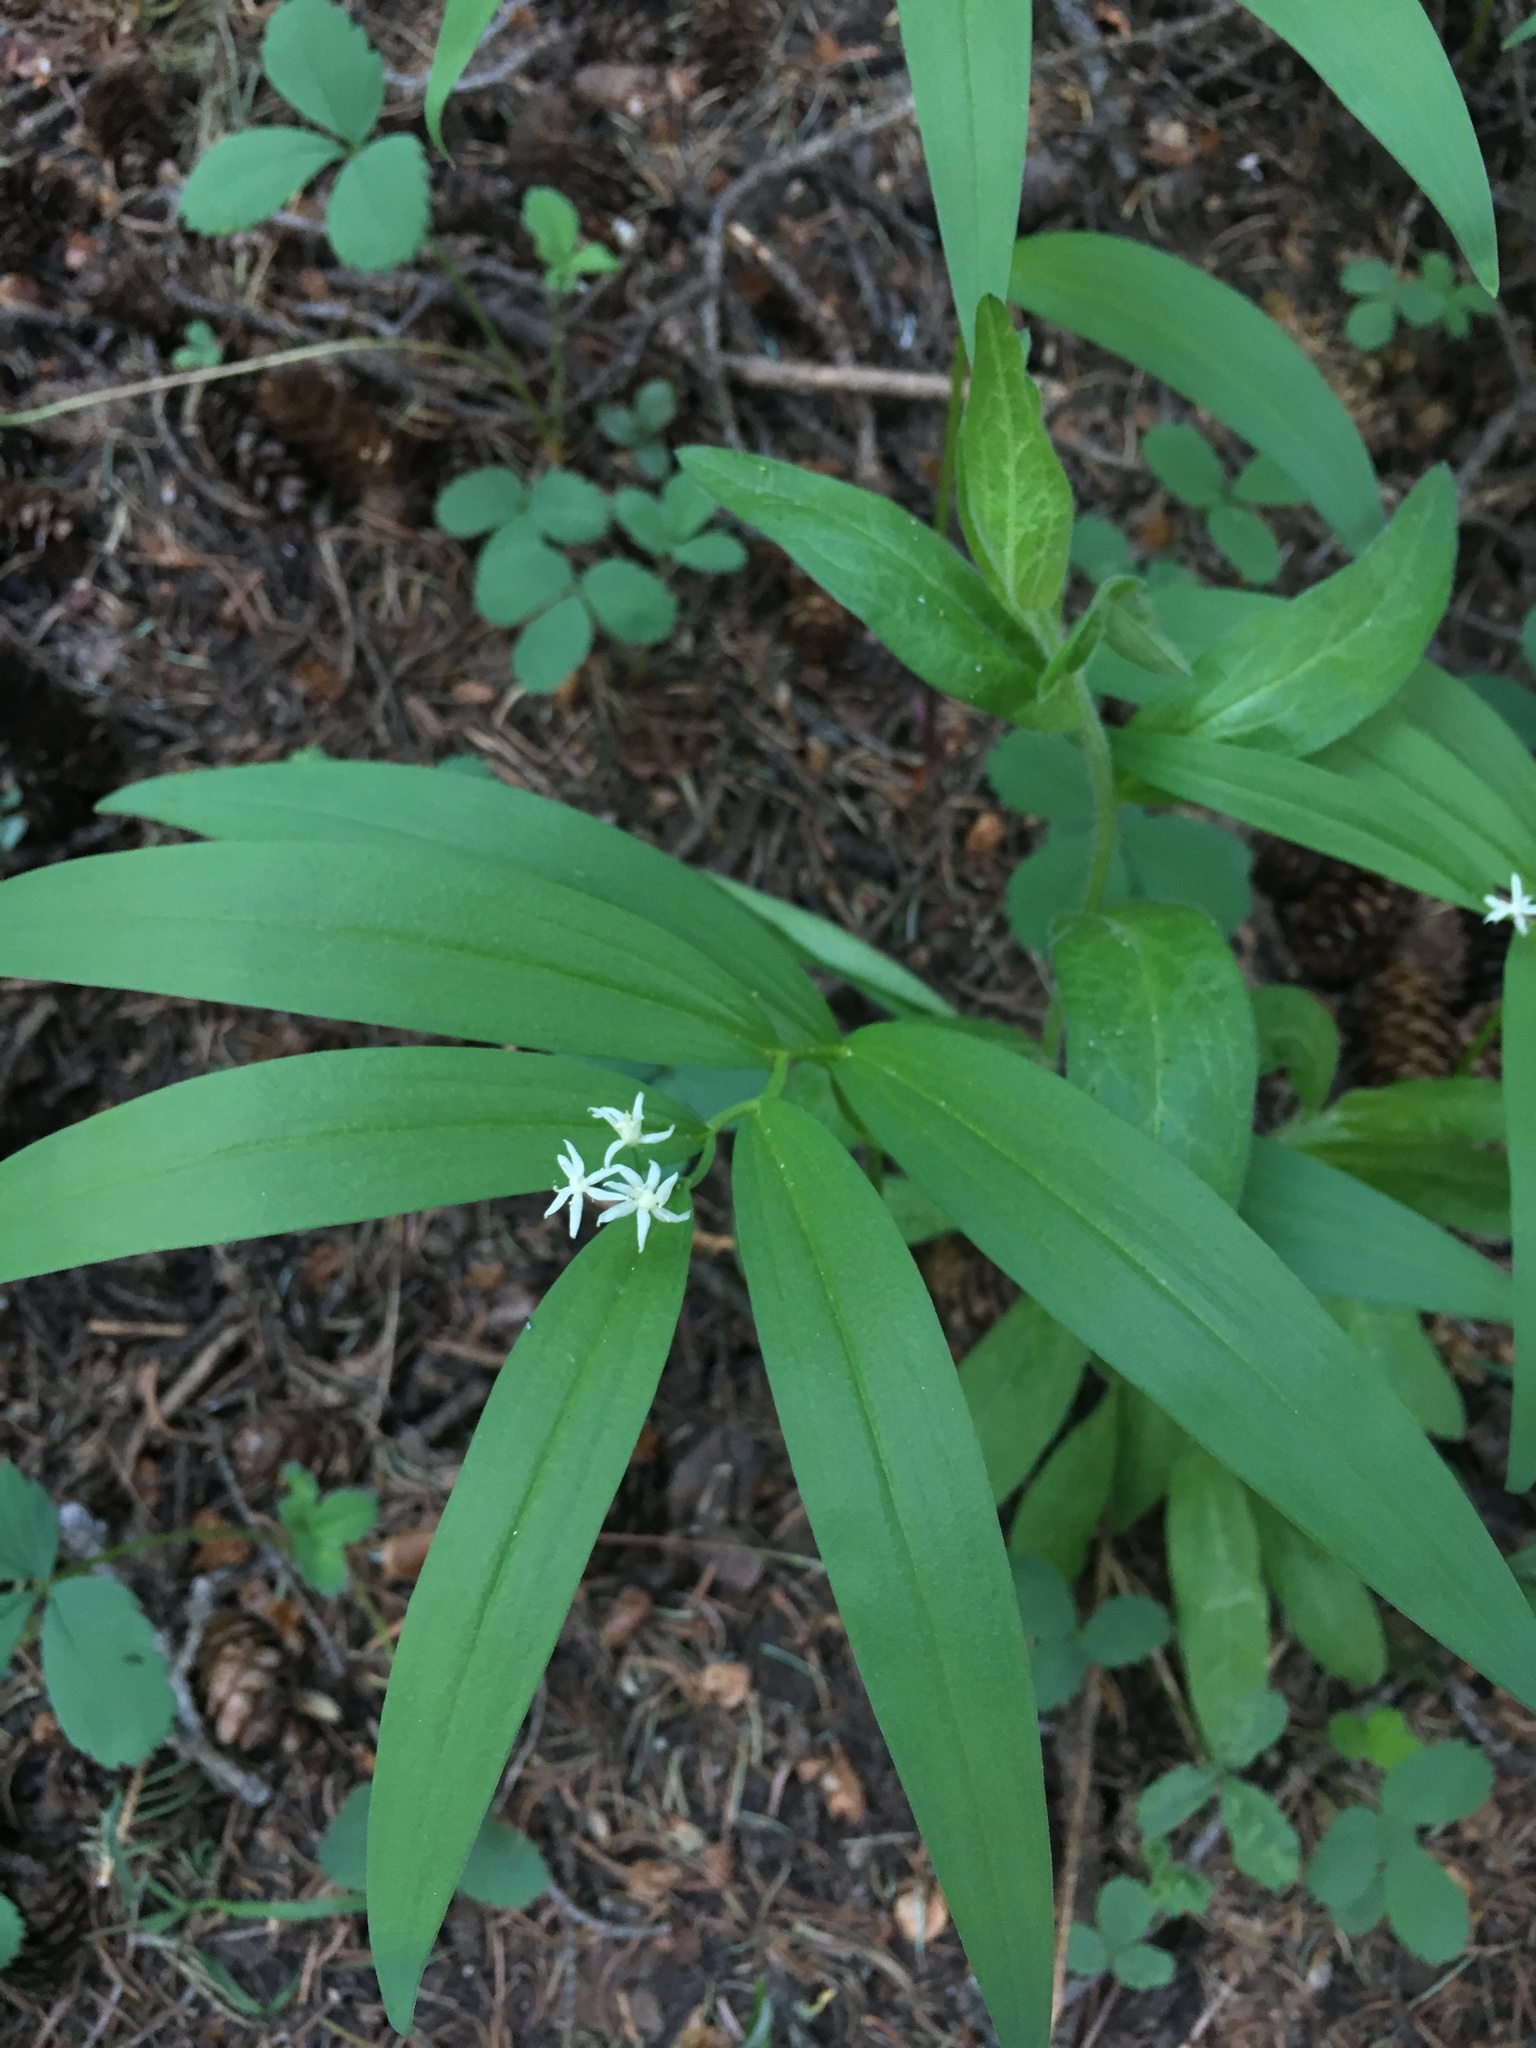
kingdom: Plantae
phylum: Tracheophyta
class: Liliopsida
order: Asparagales
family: Asparagaceae
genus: Maianthemum
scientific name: Maianthemum stellatum
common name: Little false solomon's seal
